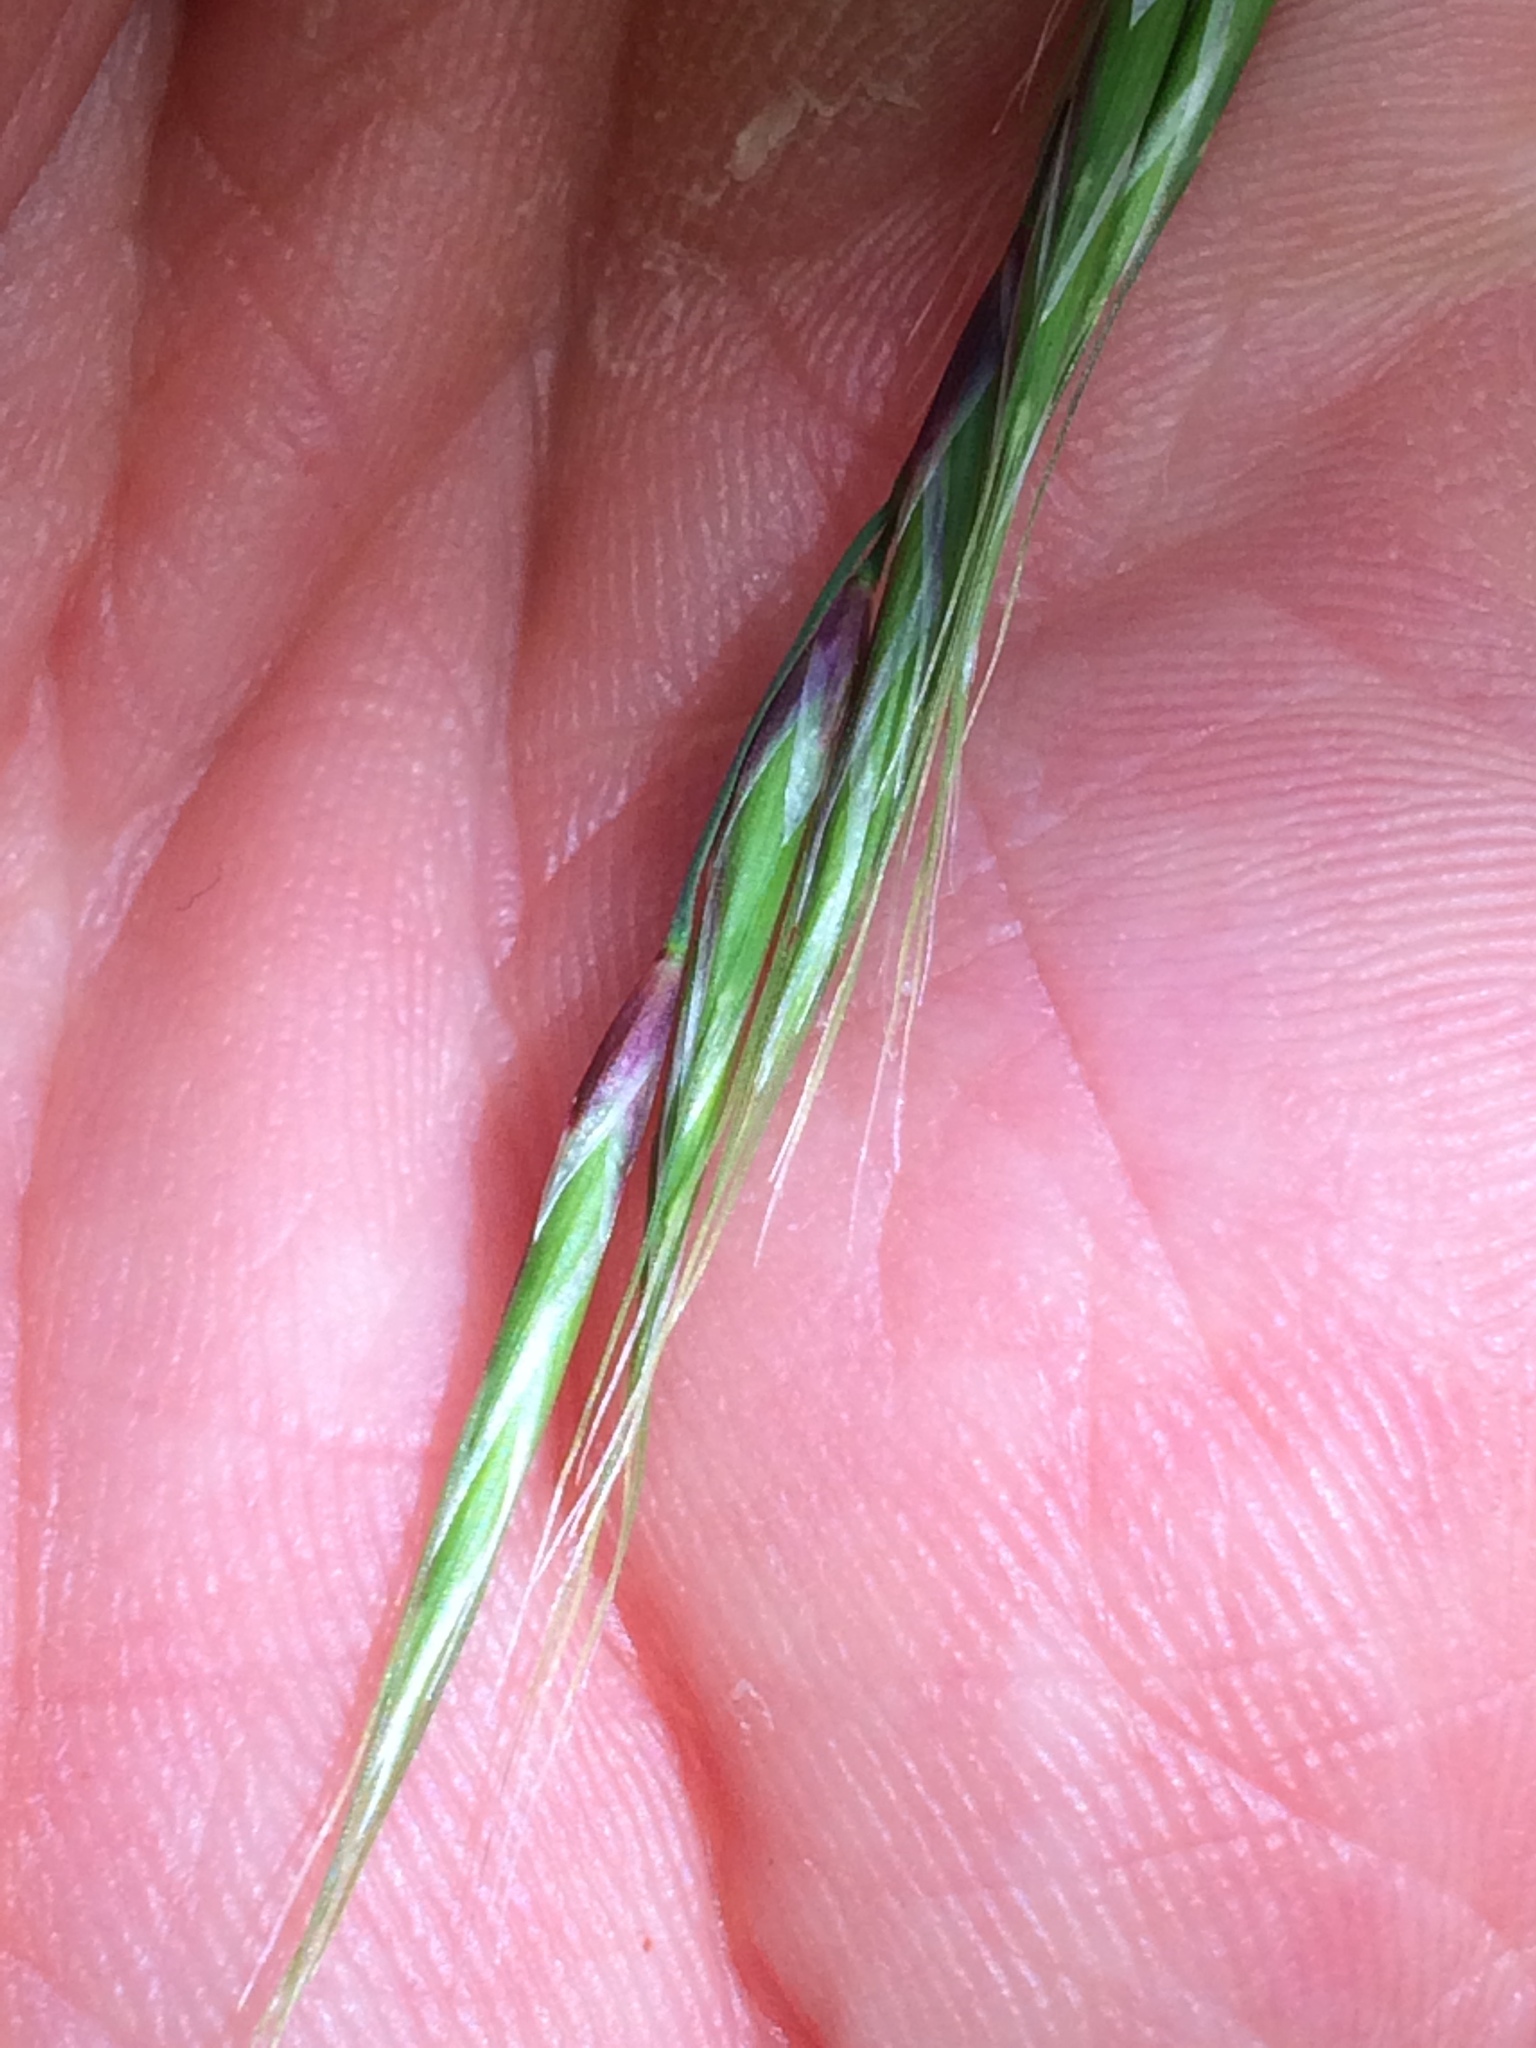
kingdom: Plantae
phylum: Tracheophyta
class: Liliopsida
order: Poales
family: Poaceae
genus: Schizachne
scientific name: Schizachne purpurascens
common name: False melic
